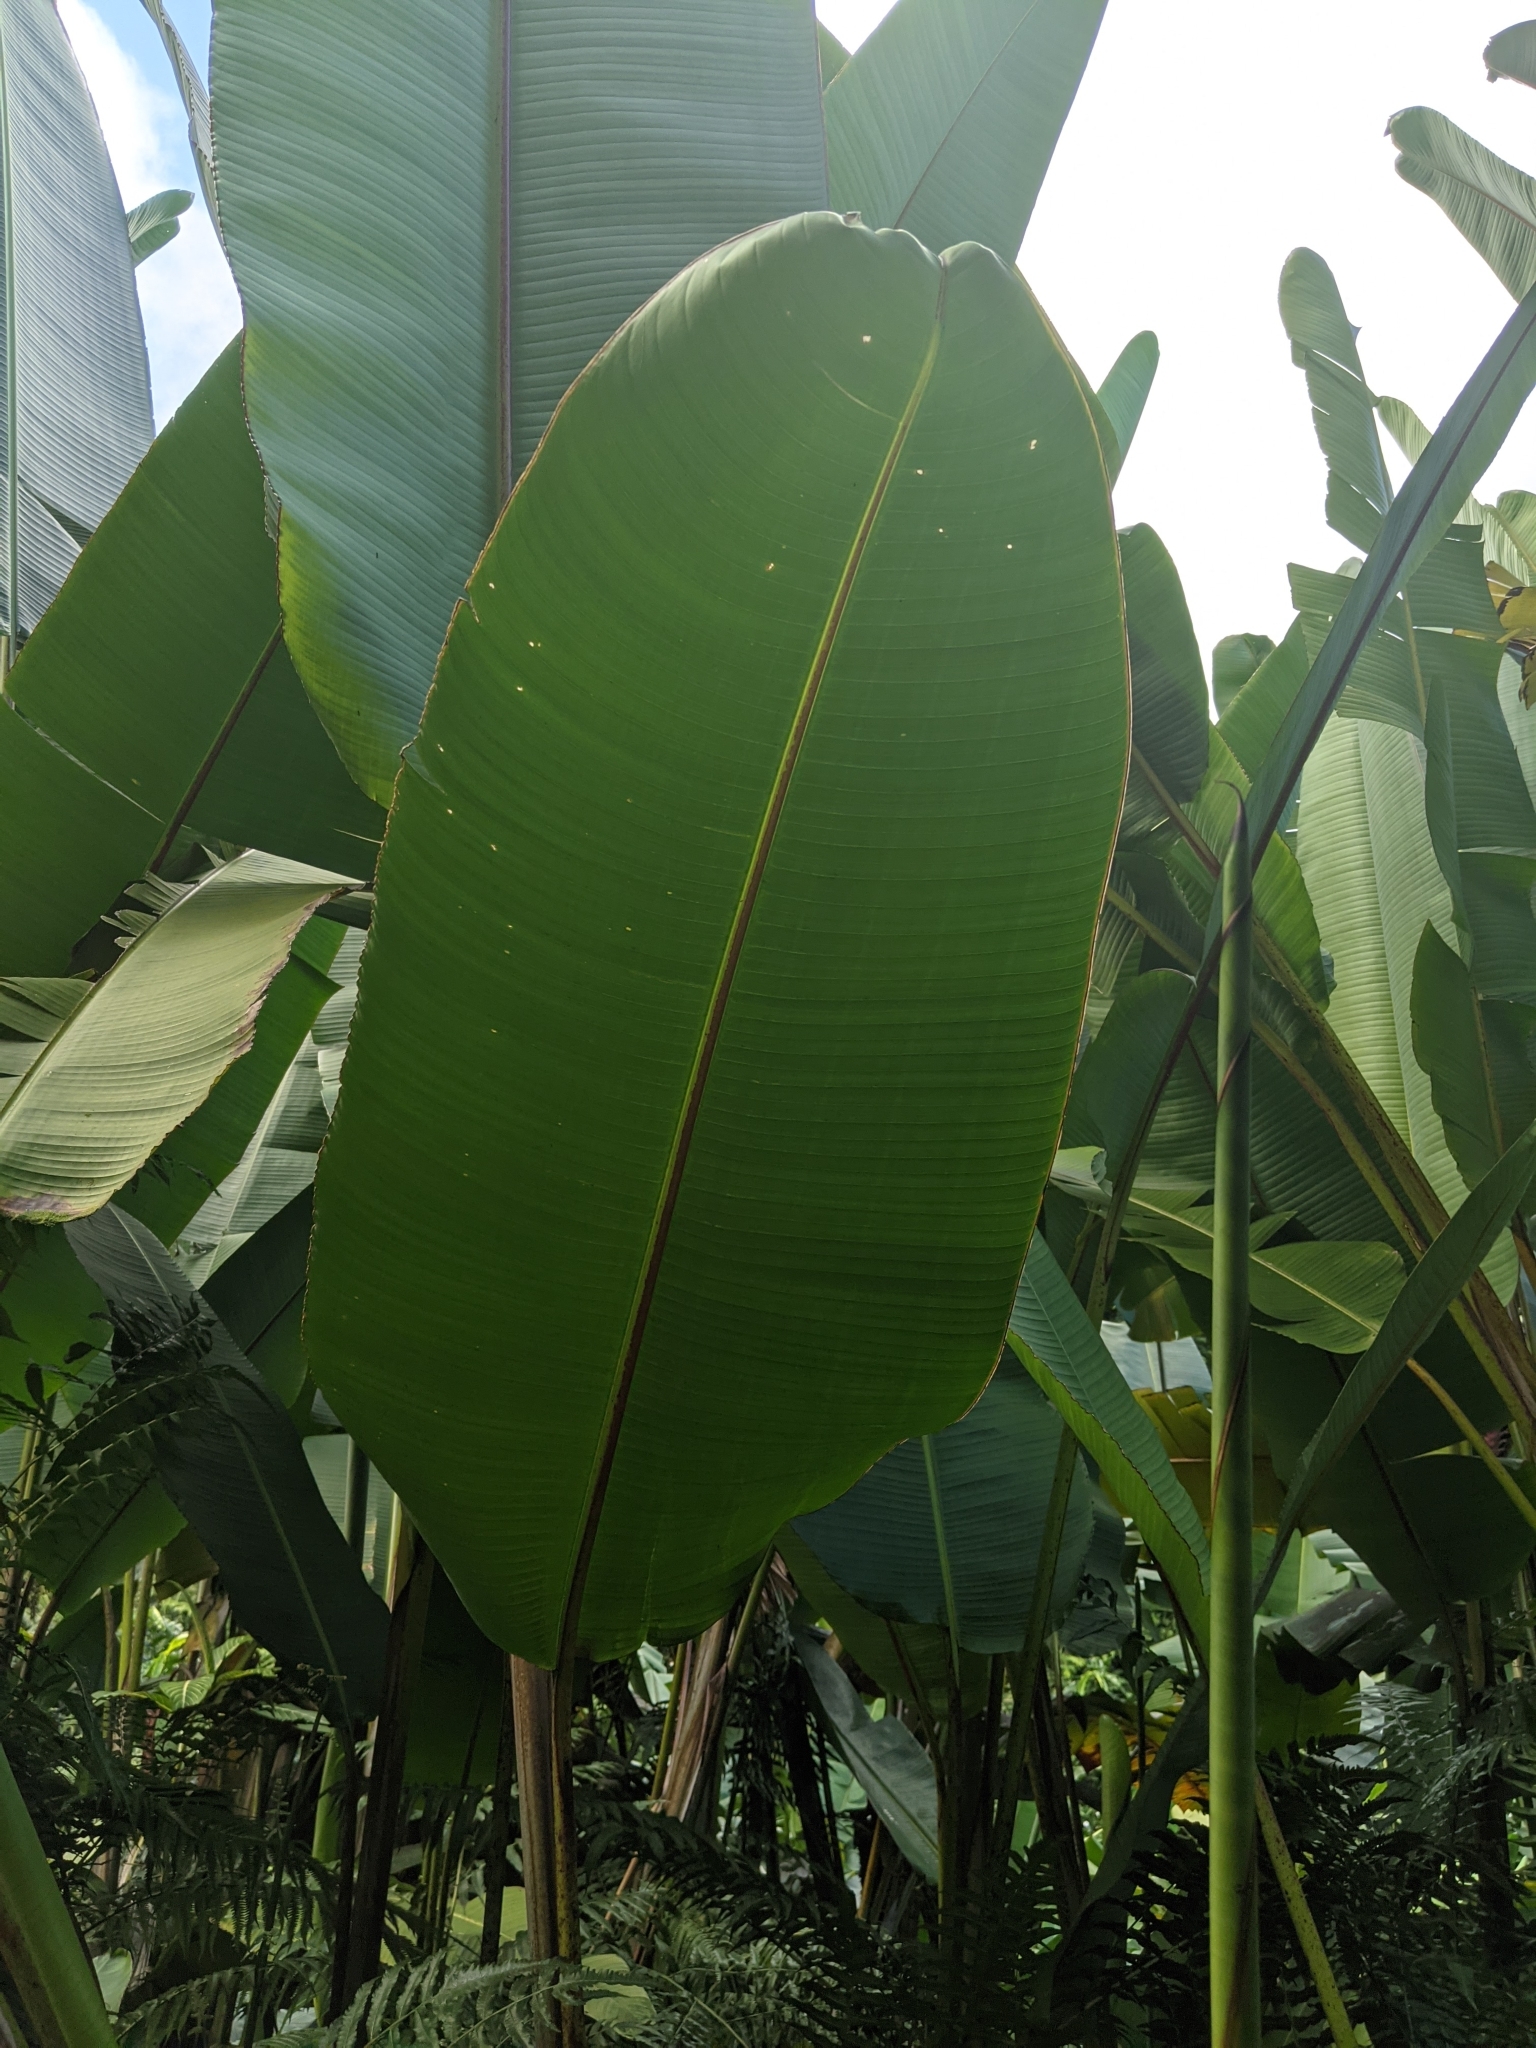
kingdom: Plantae
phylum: Tracheophyta
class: Liliopsida
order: Zingiberales
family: Heliconiaceae
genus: Heliconia
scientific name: Heliconia mariae
